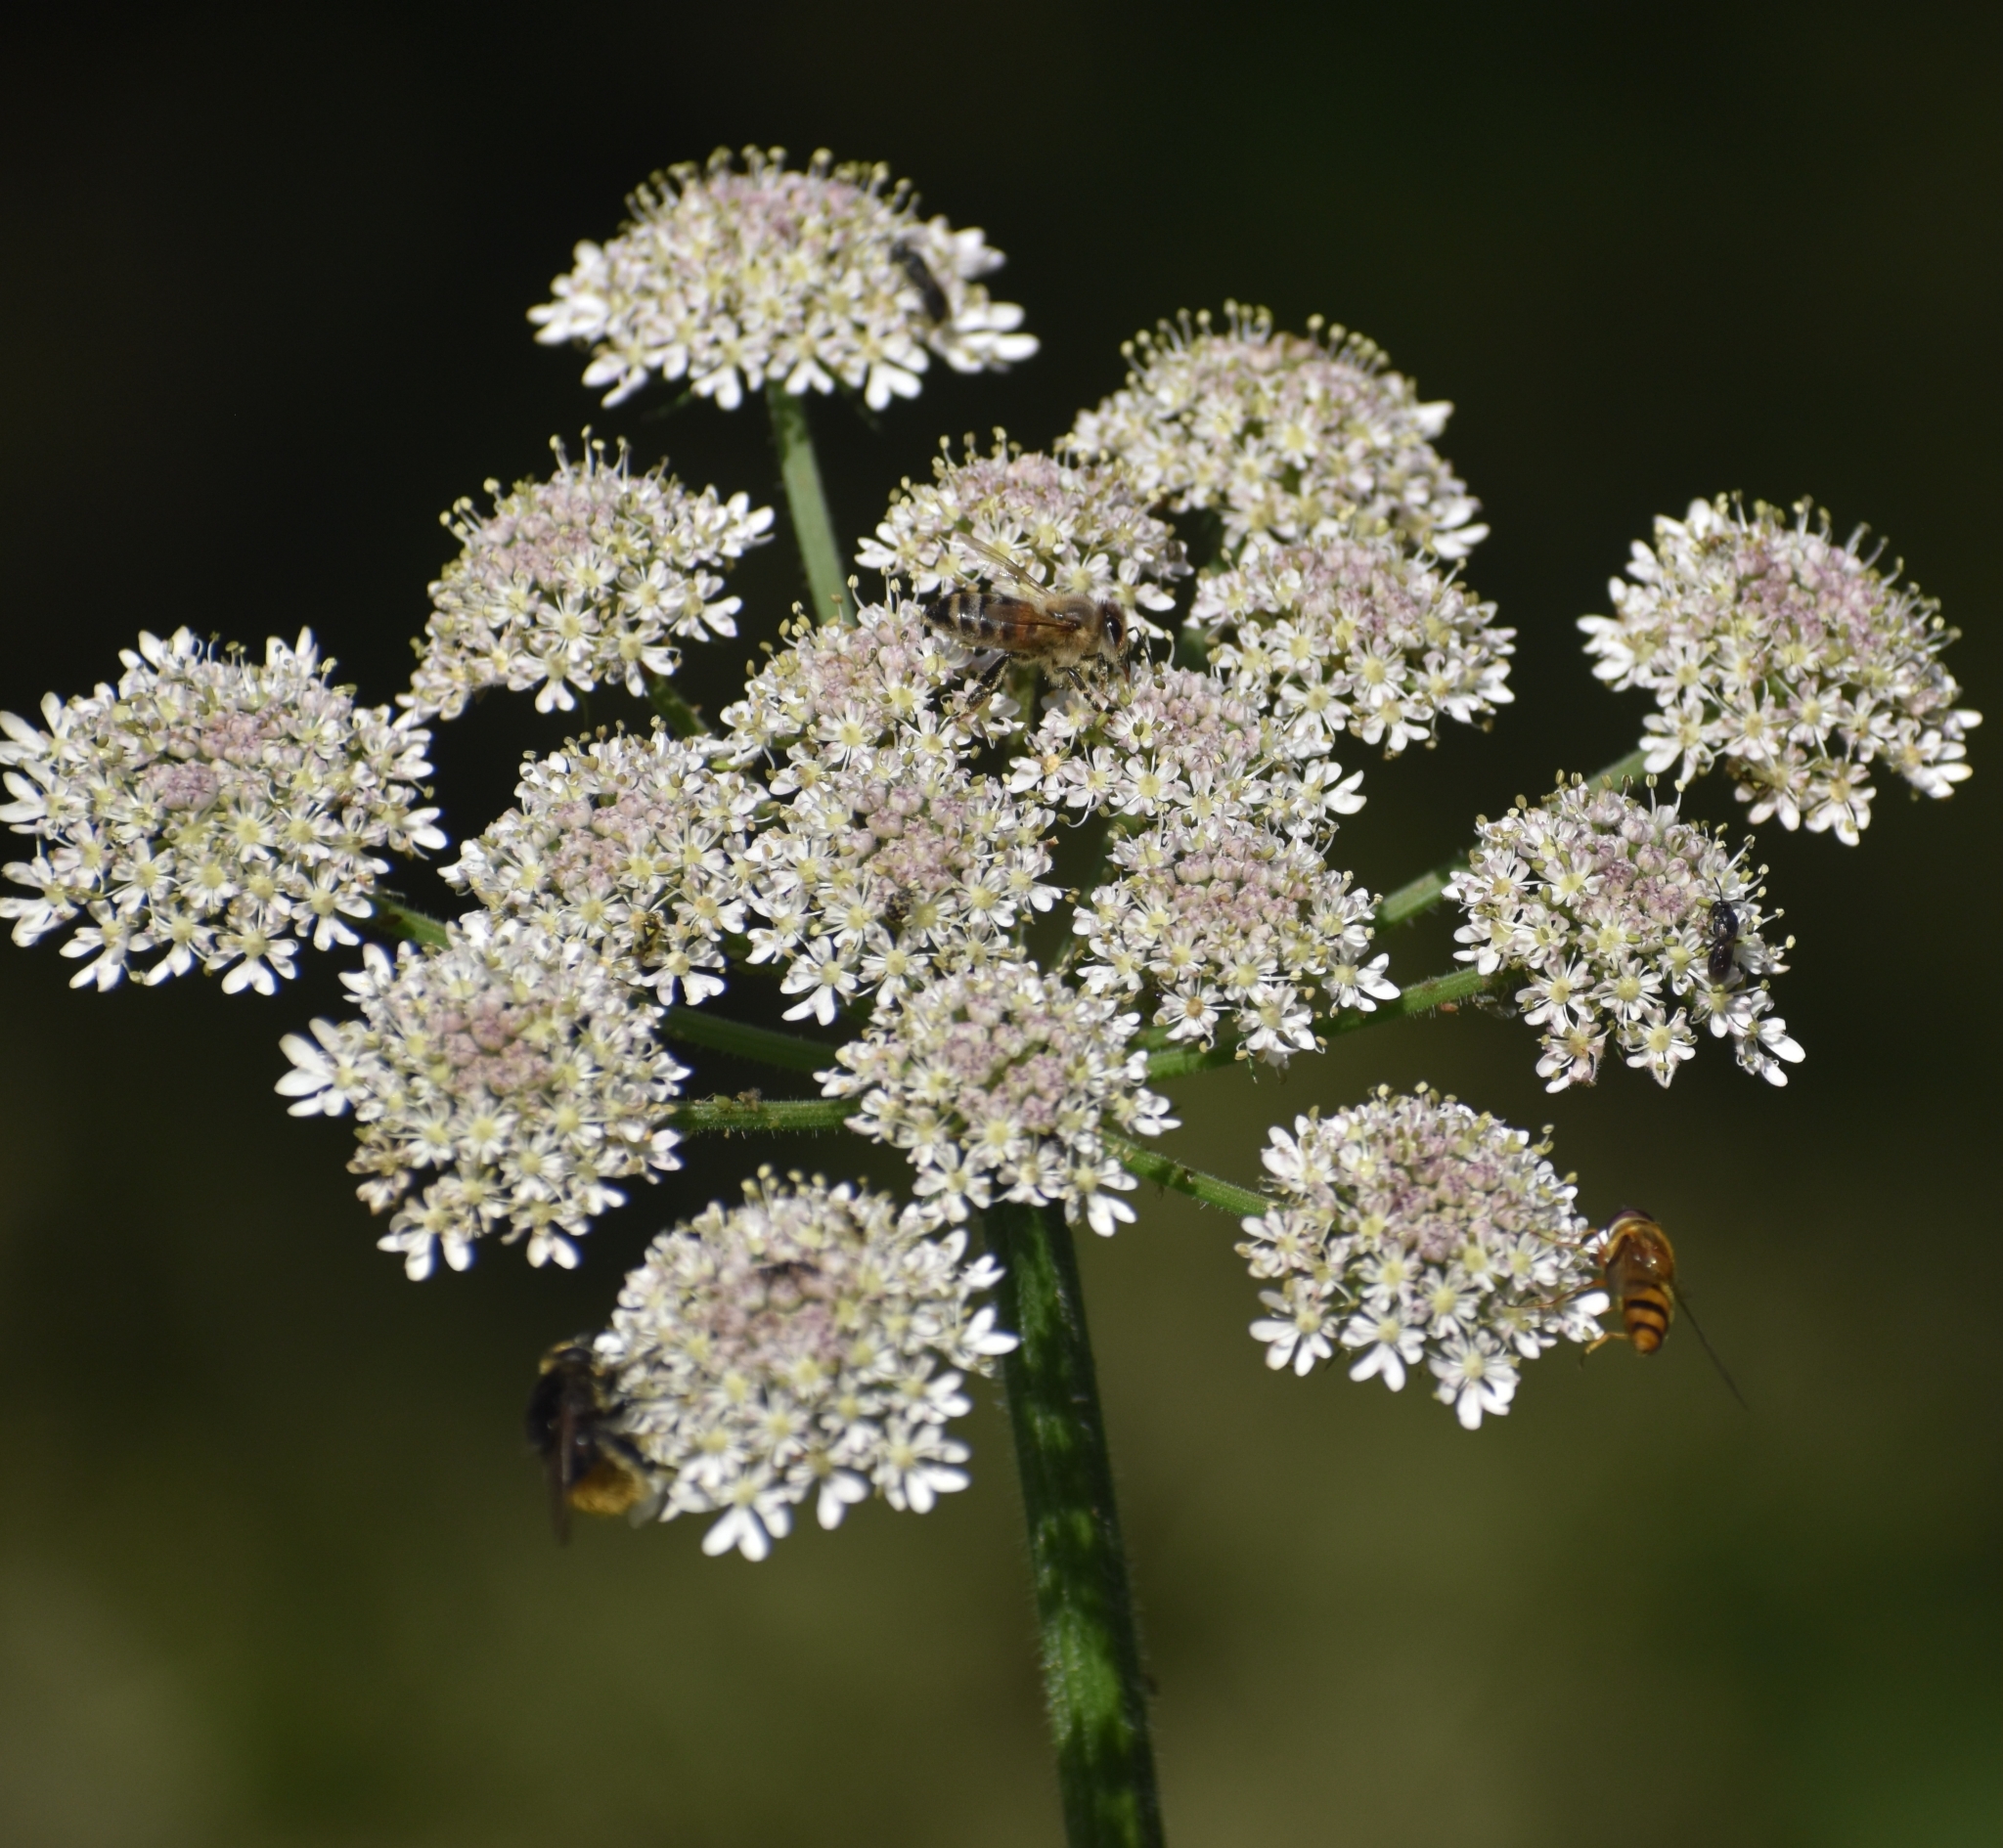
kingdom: Animalia
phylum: Arthropoda
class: Insecta
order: Diptera
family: Syrphidae
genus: Volucella
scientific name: Volucella bombylans
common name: Bumble bee hover fly
